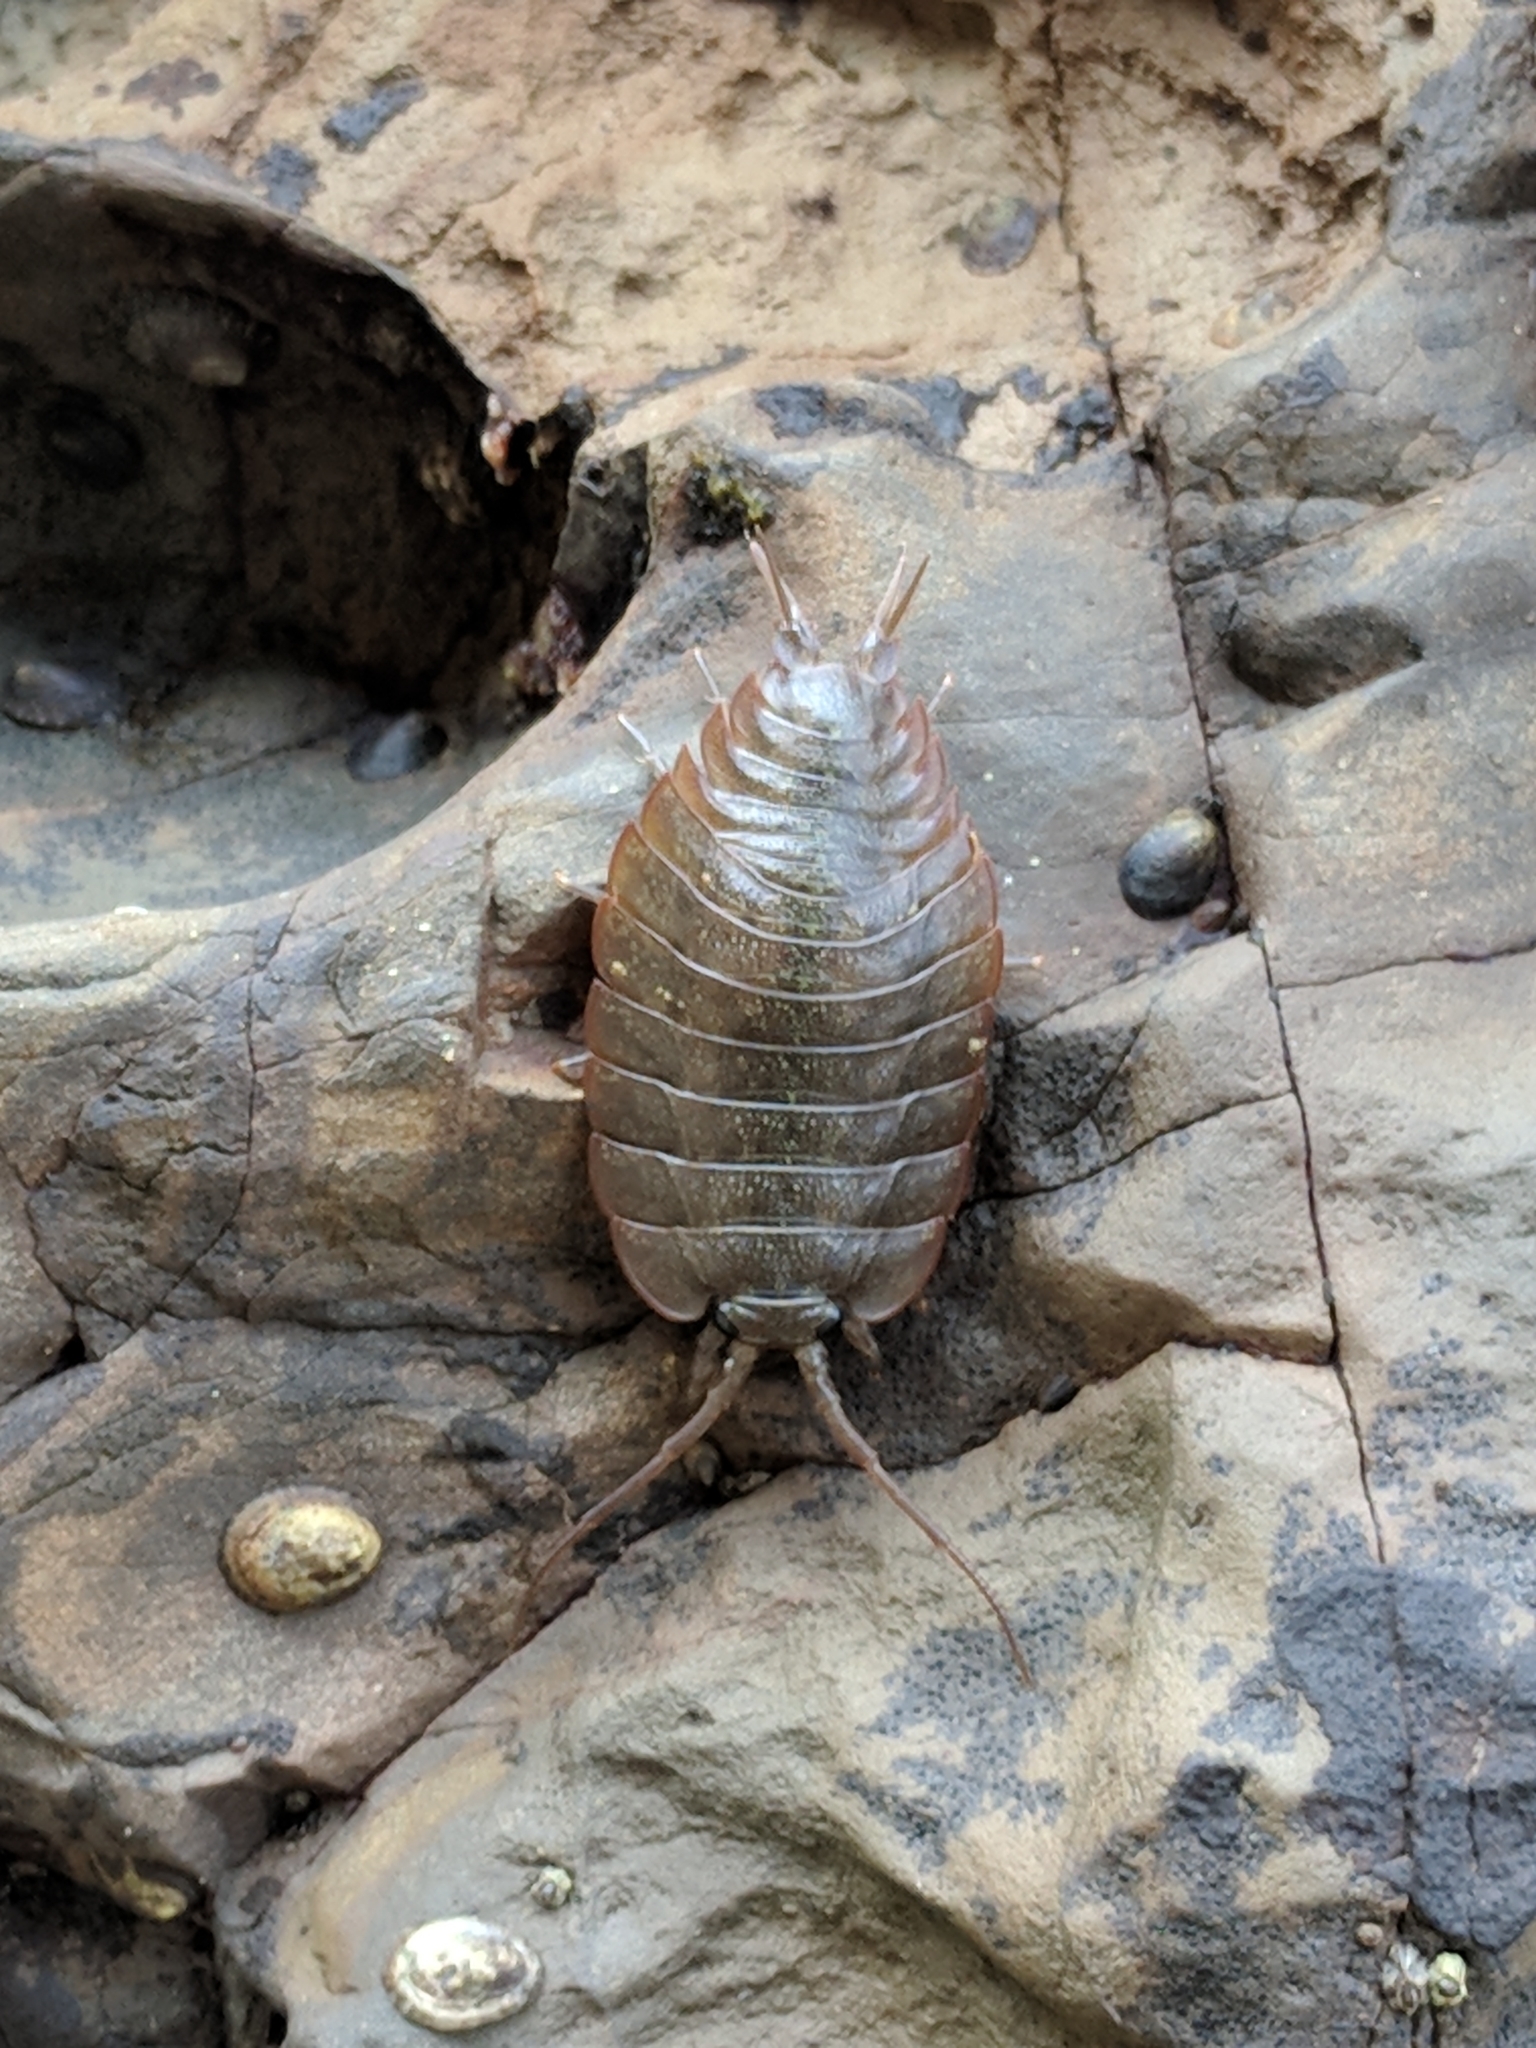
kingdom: Animalia
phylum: Arthropoda
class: Malacostraca
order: Isopoda
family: Ligiidae
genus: Ligia
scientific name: Ligia pallasii
